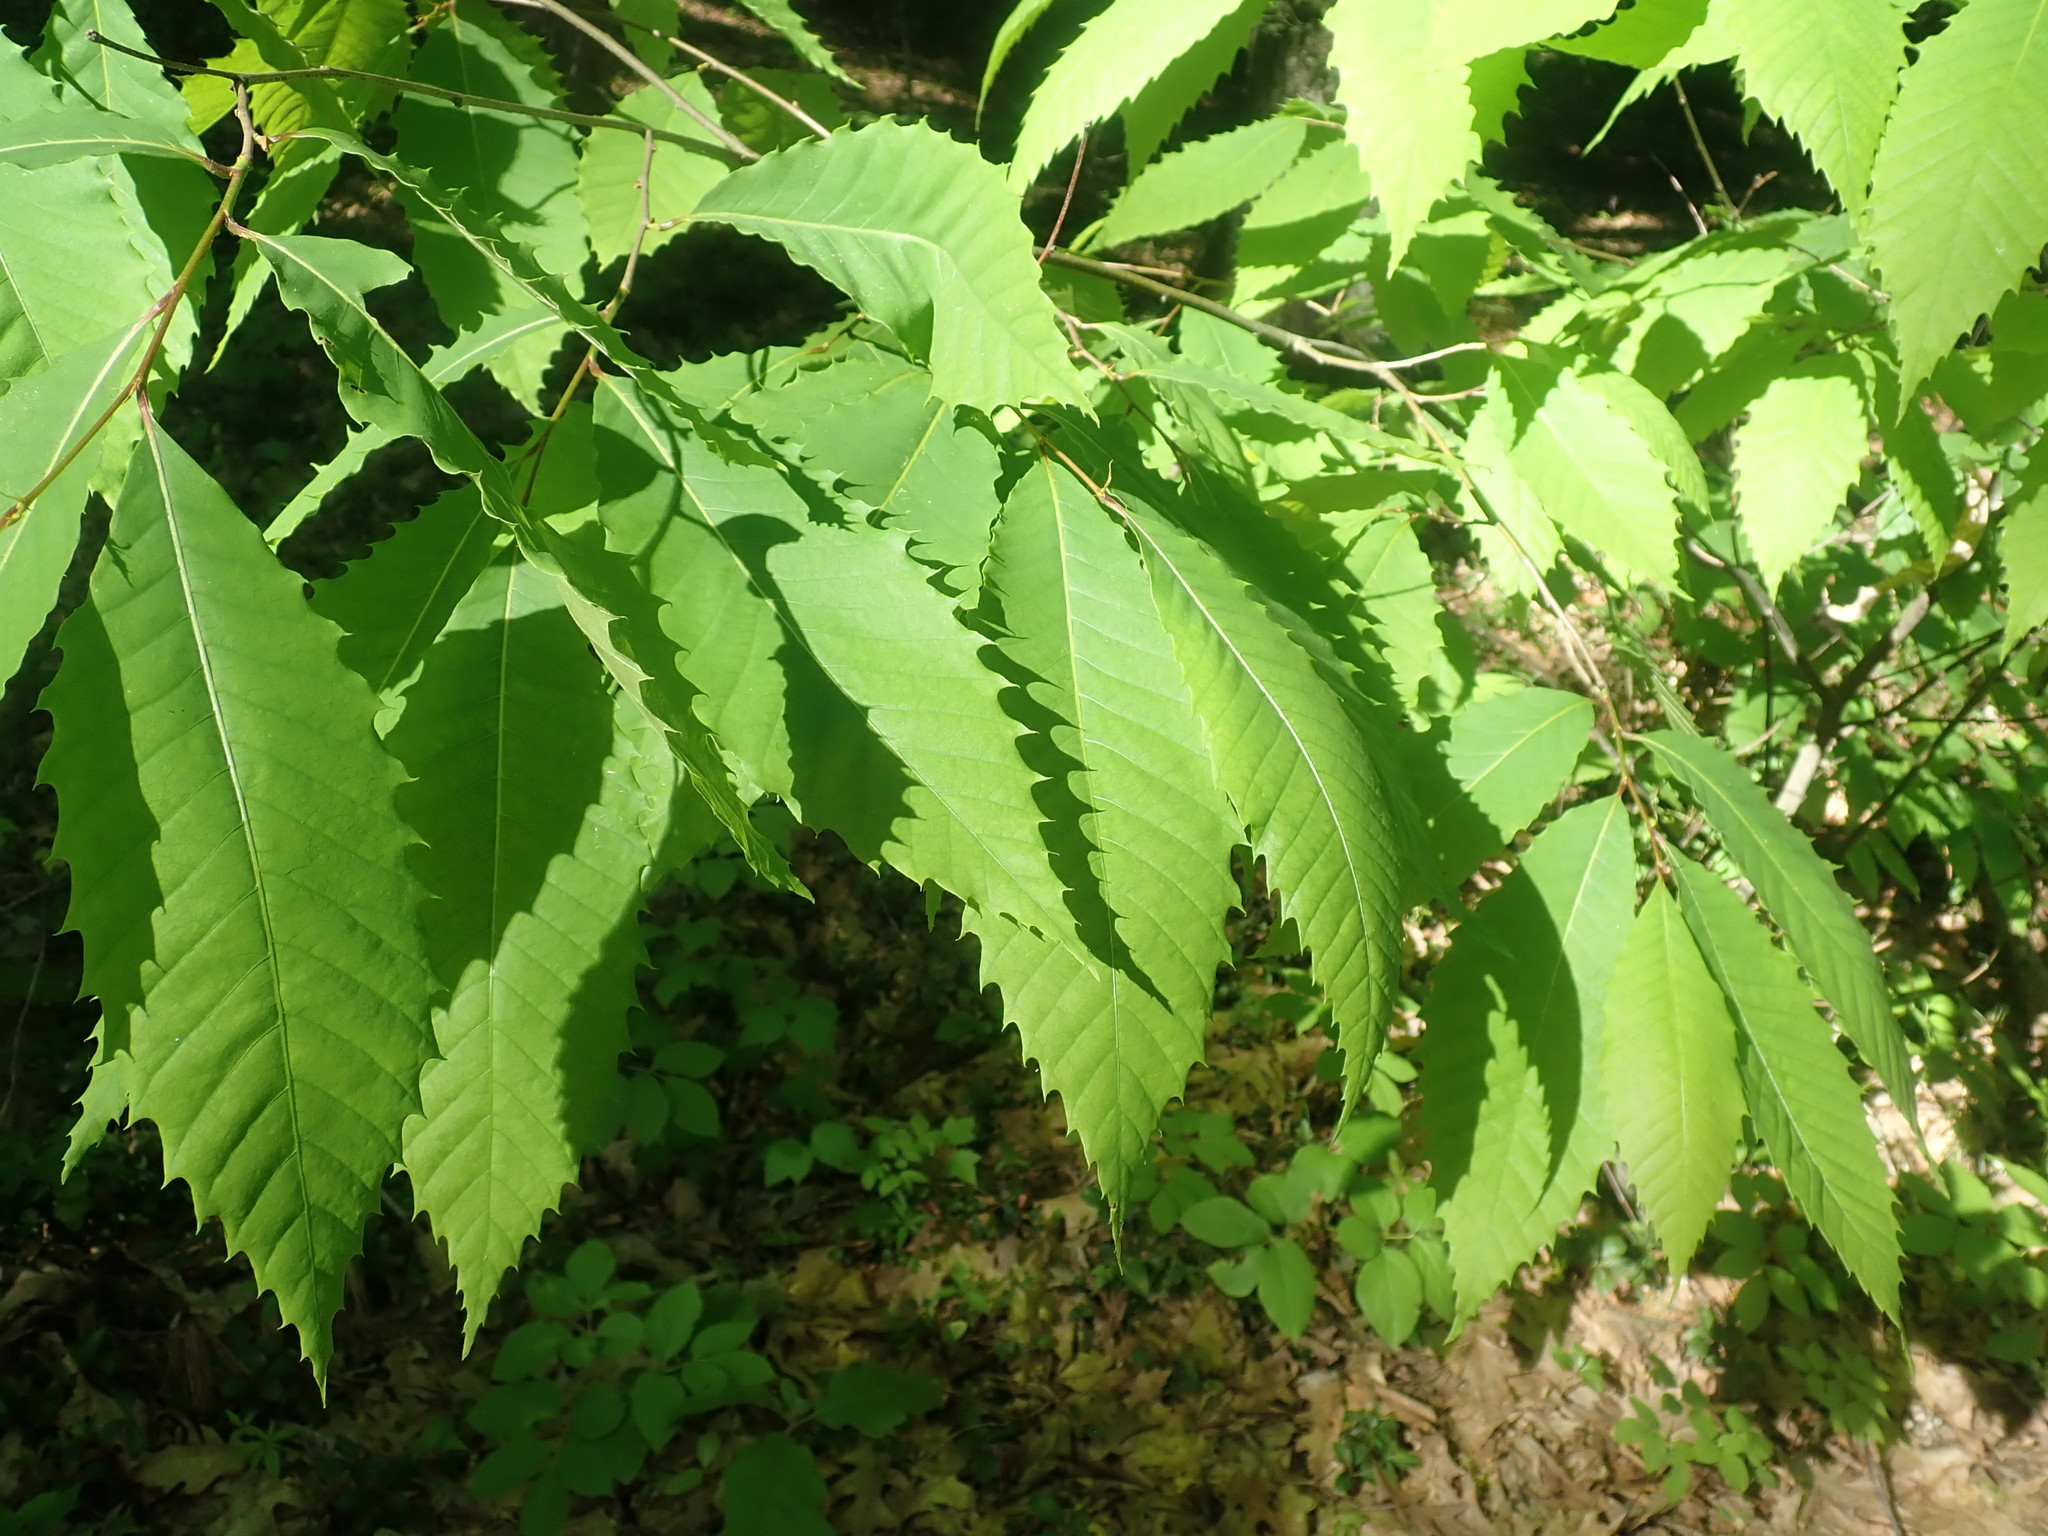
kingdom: Plantae
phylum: Tracheophyta
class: Magnoliopsida
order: Fagales
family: Fagaceae
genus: Castanea
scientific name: Castanea dentata
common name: American chestnut
